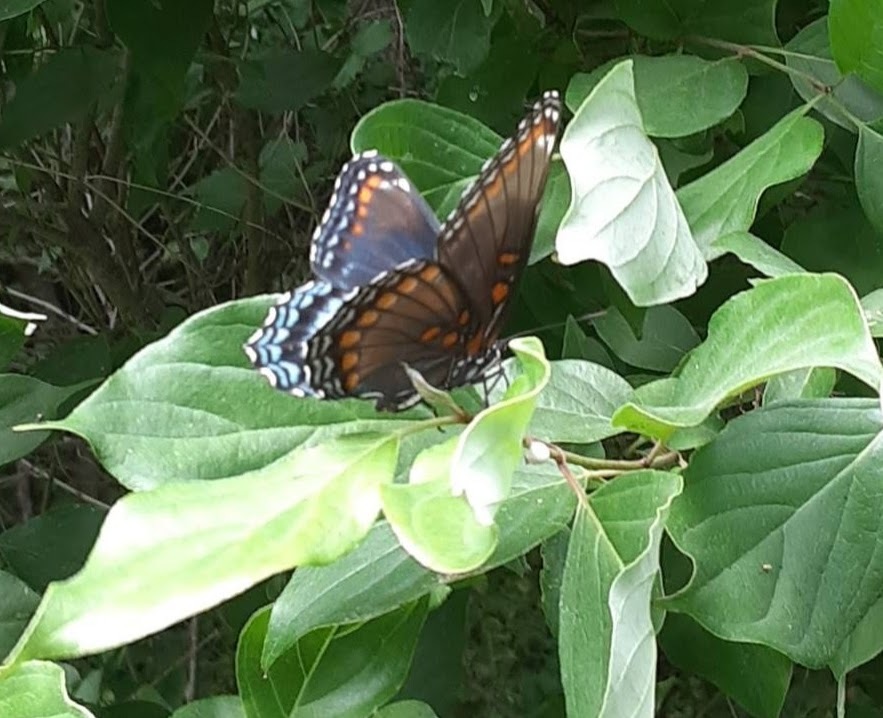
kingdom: Animalia
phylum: Arthropoda
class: Insecta
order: Lepidoptera
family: Nymphalidae
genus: Limenitis
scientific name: Limenitis astyanax
